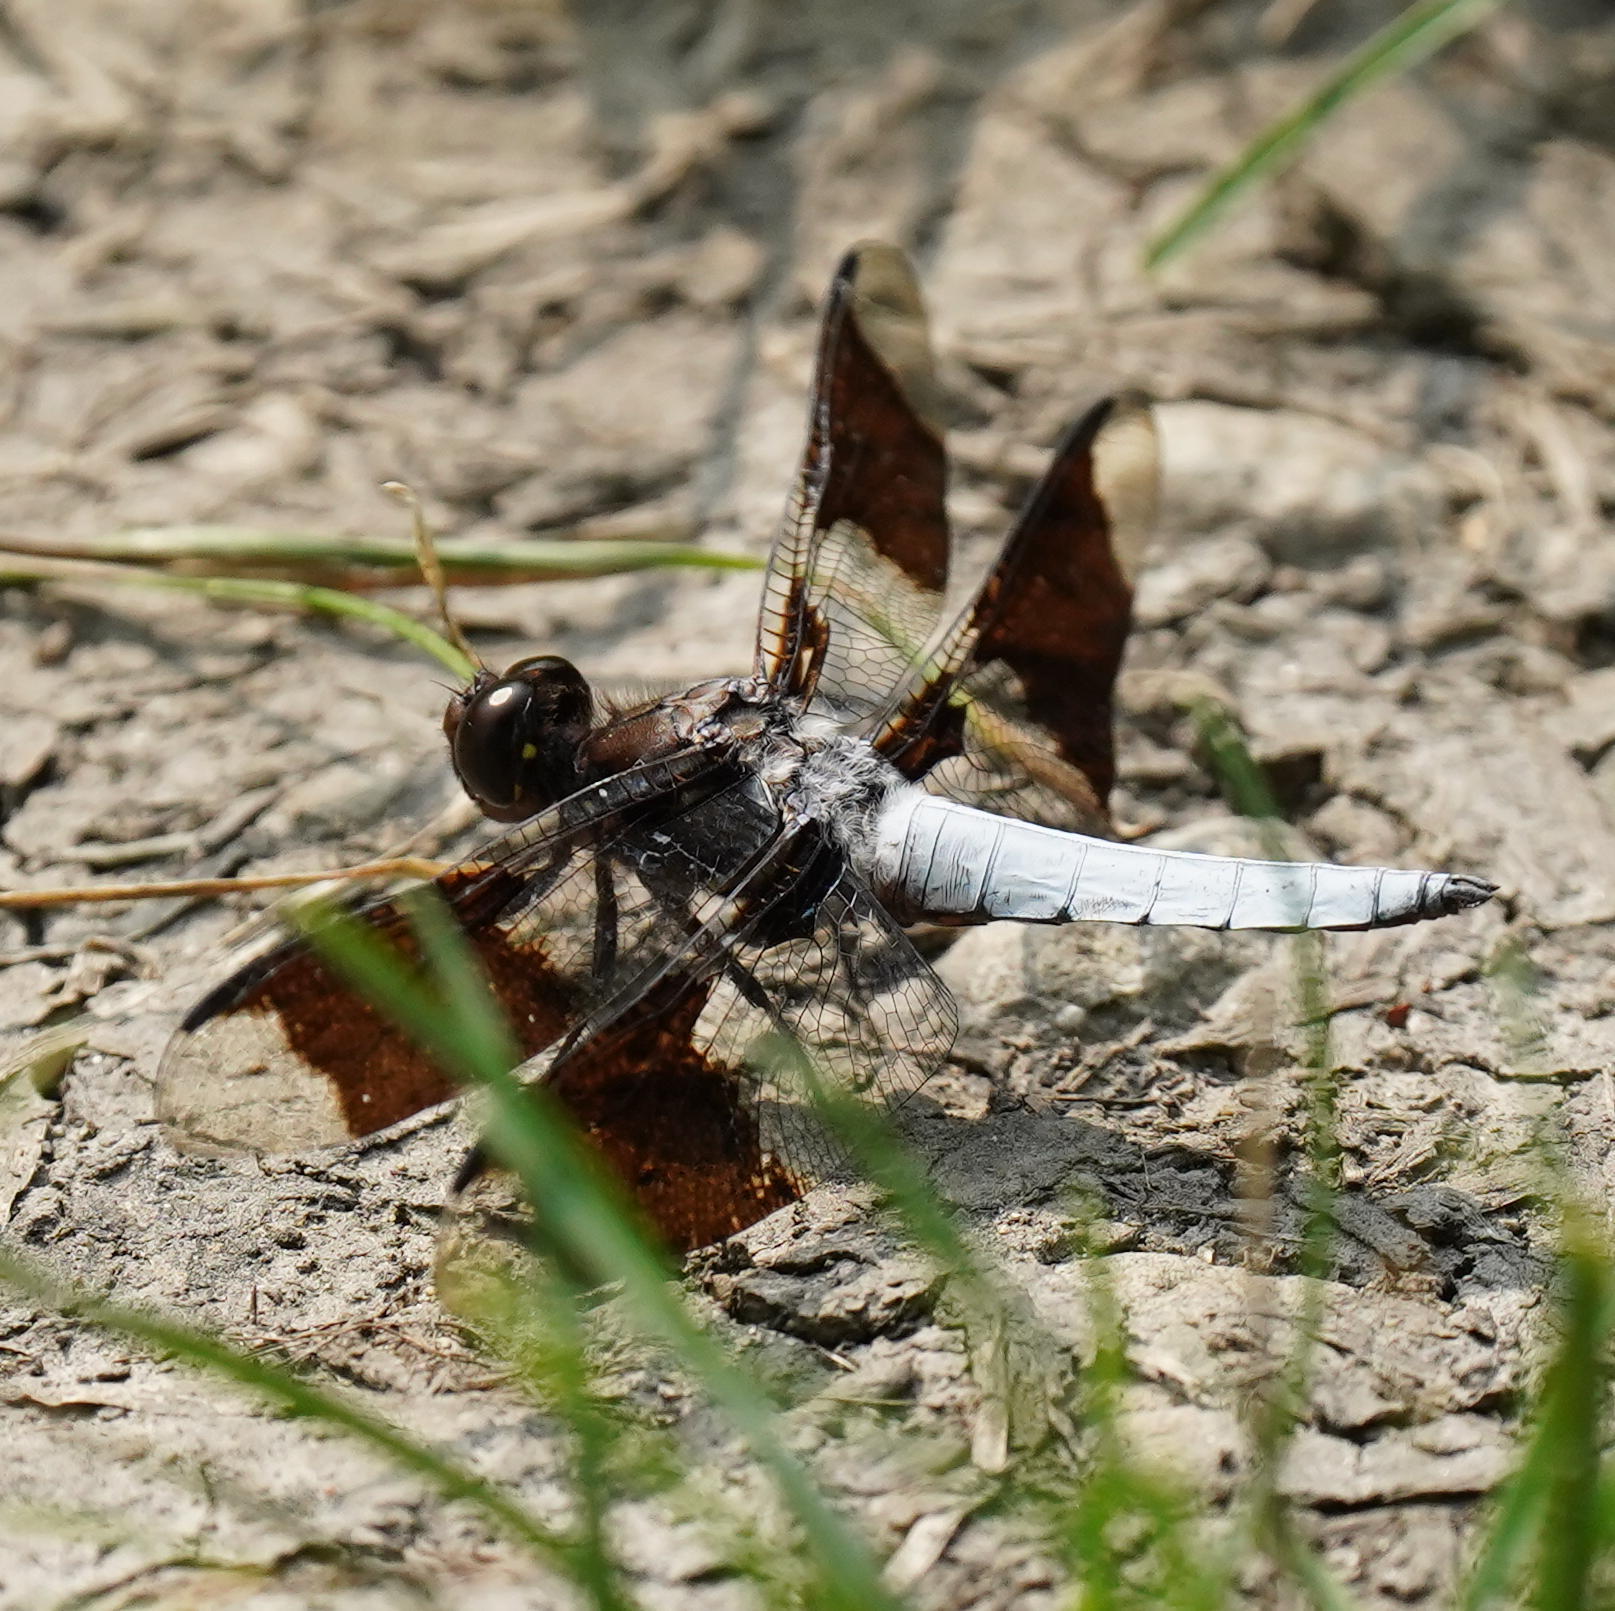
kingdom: Animalia
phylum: Arthropoda
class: Insecta
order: Odonata
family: Libellulidae
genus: Plathemis
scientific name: Plathemis lydia
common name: Common whitetail
